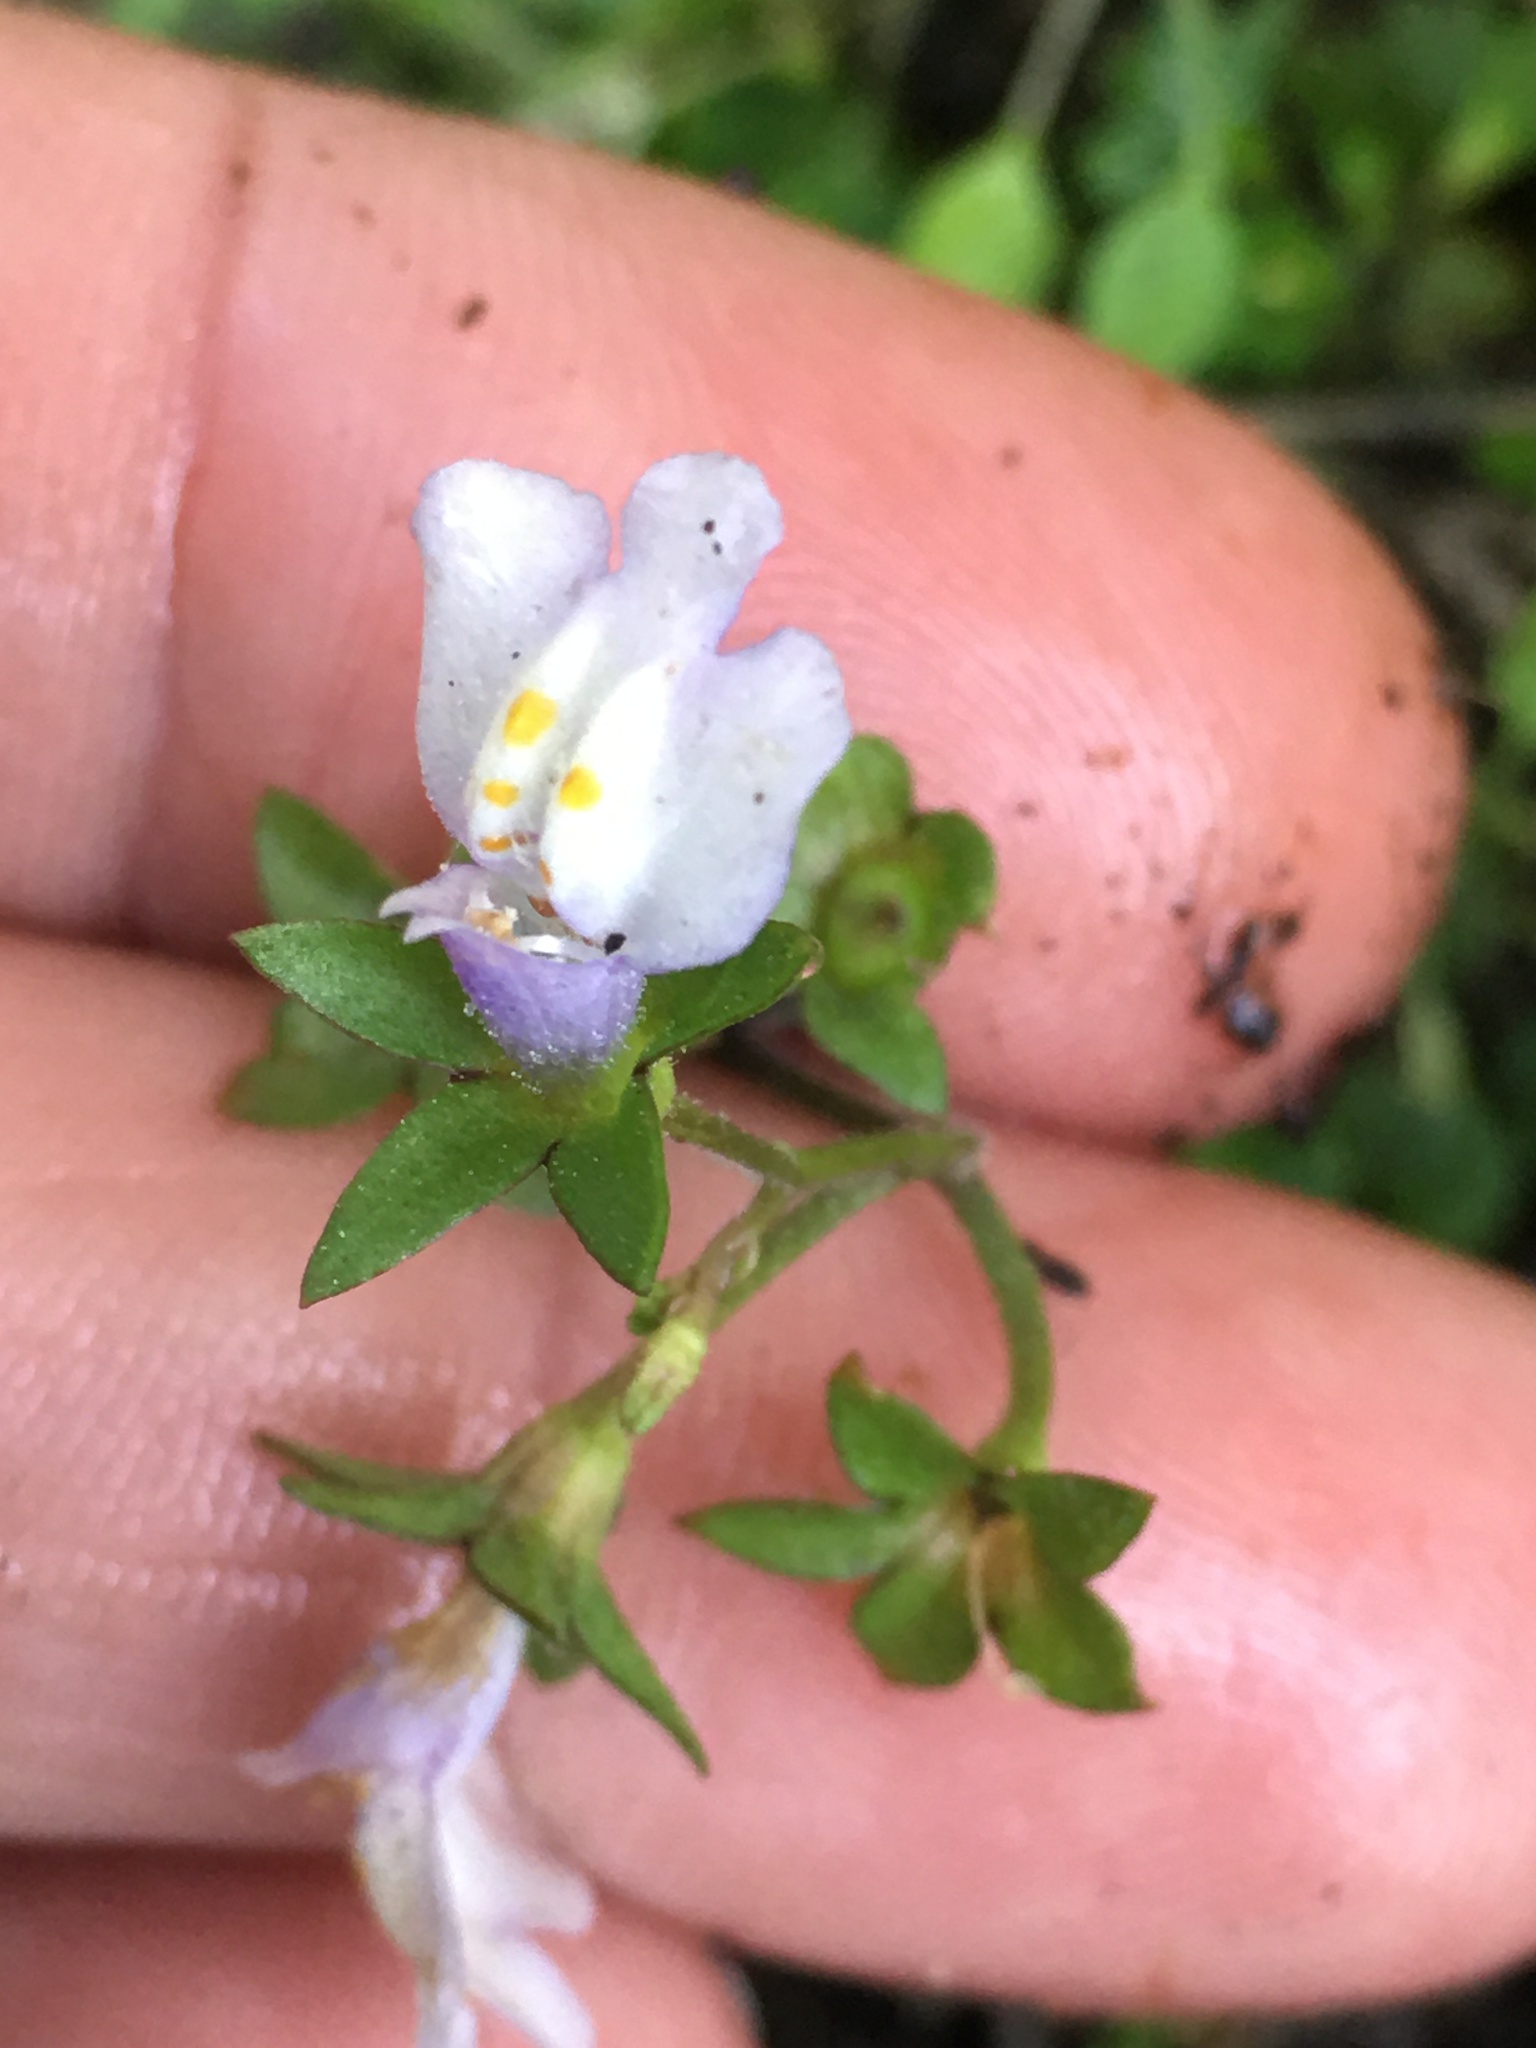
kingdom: Plantae
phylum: Tracheophyta
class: Magnoliopsida
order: Lamiales
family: Mazaceae
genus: Mazus
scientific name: Mazus pumilus
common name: Japanese mazus
